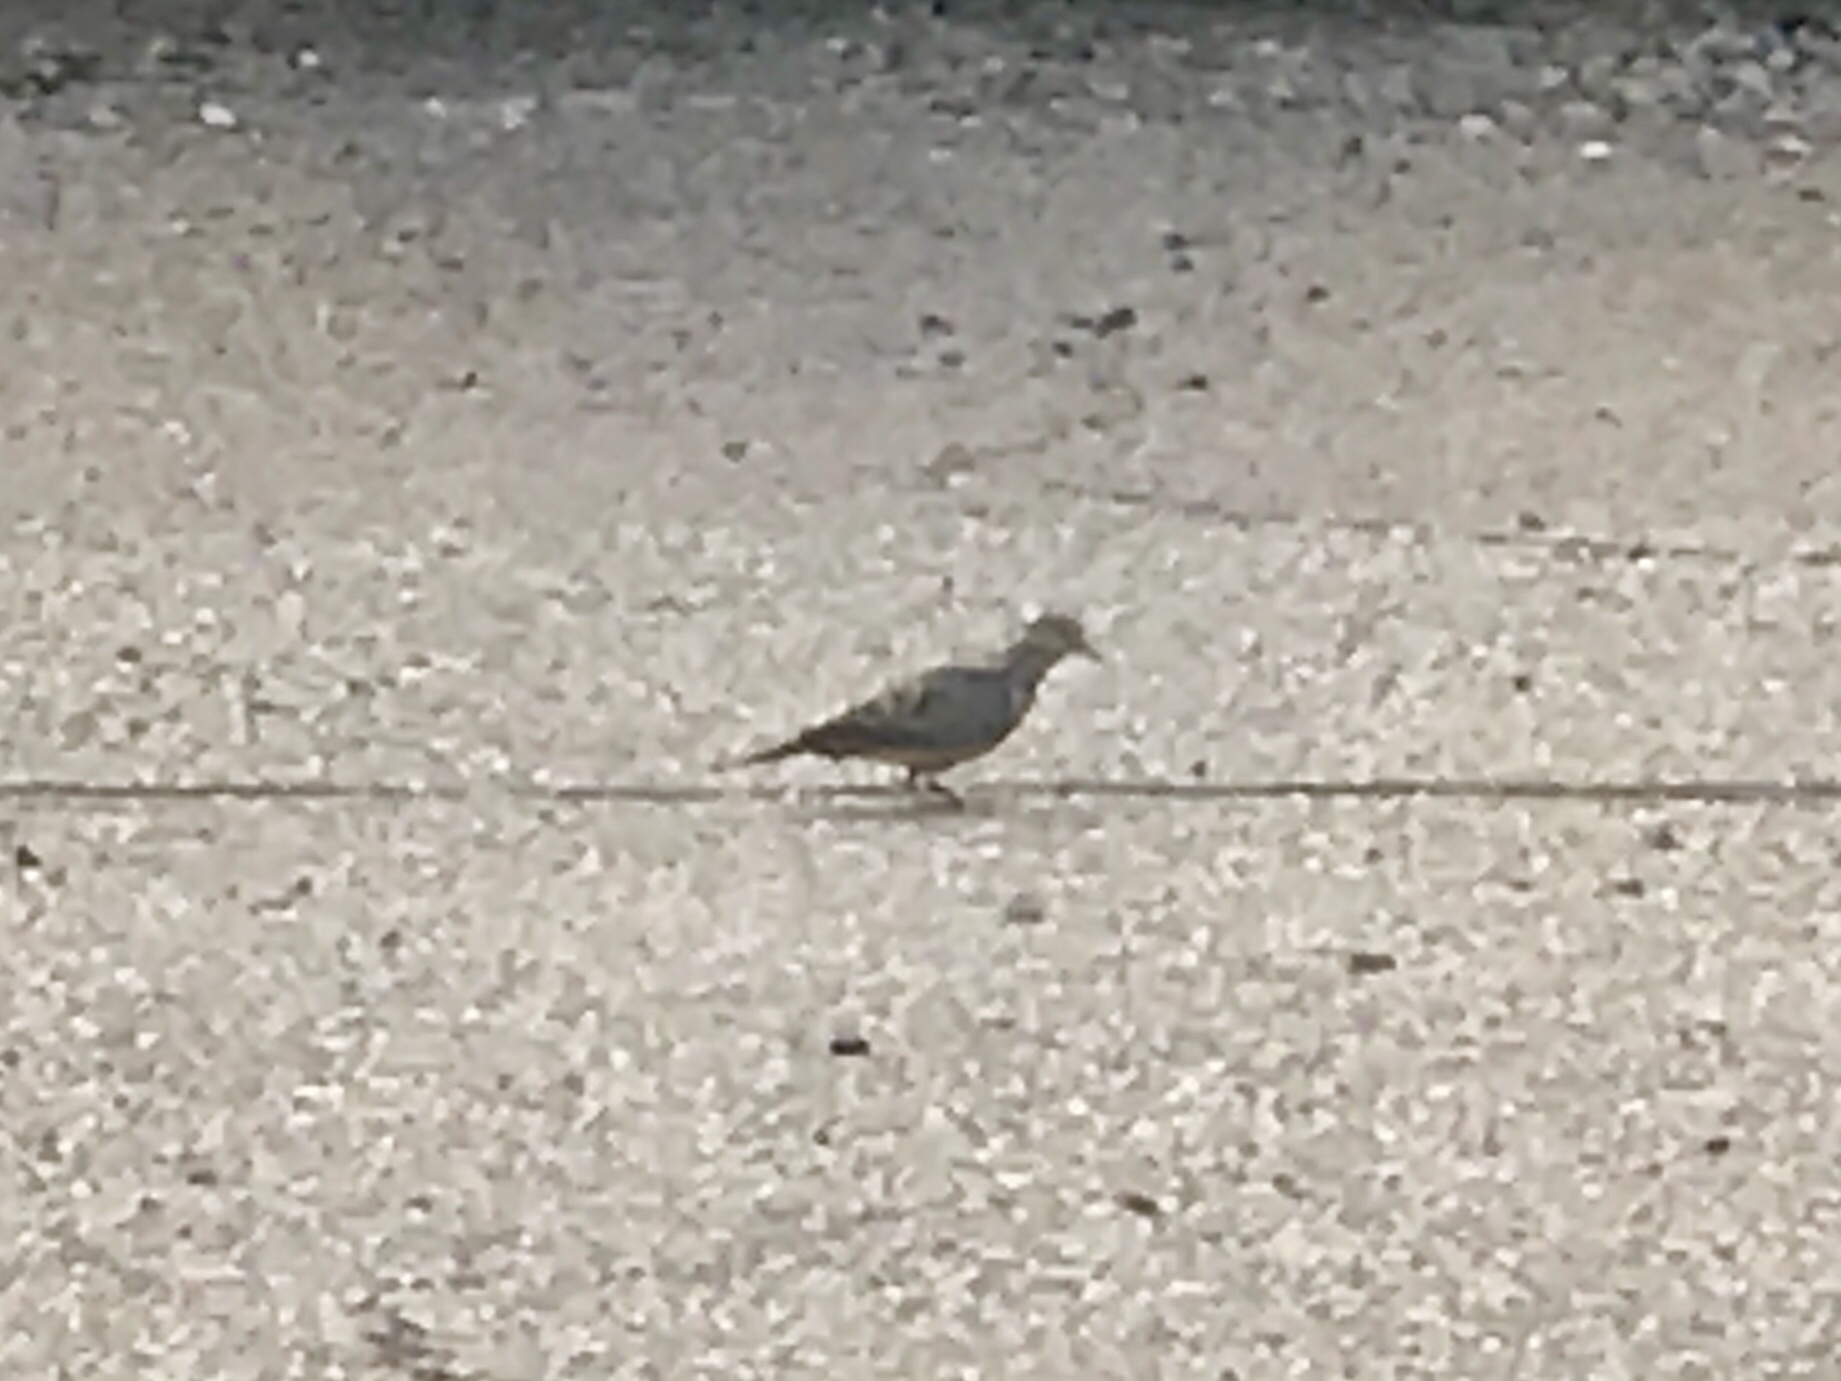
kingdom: Animalia
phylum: Chordata
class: Aves
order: Columbiformes
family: Columbidae
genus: Zenaida
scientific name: Zenaida macroura
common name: Mourning dove
